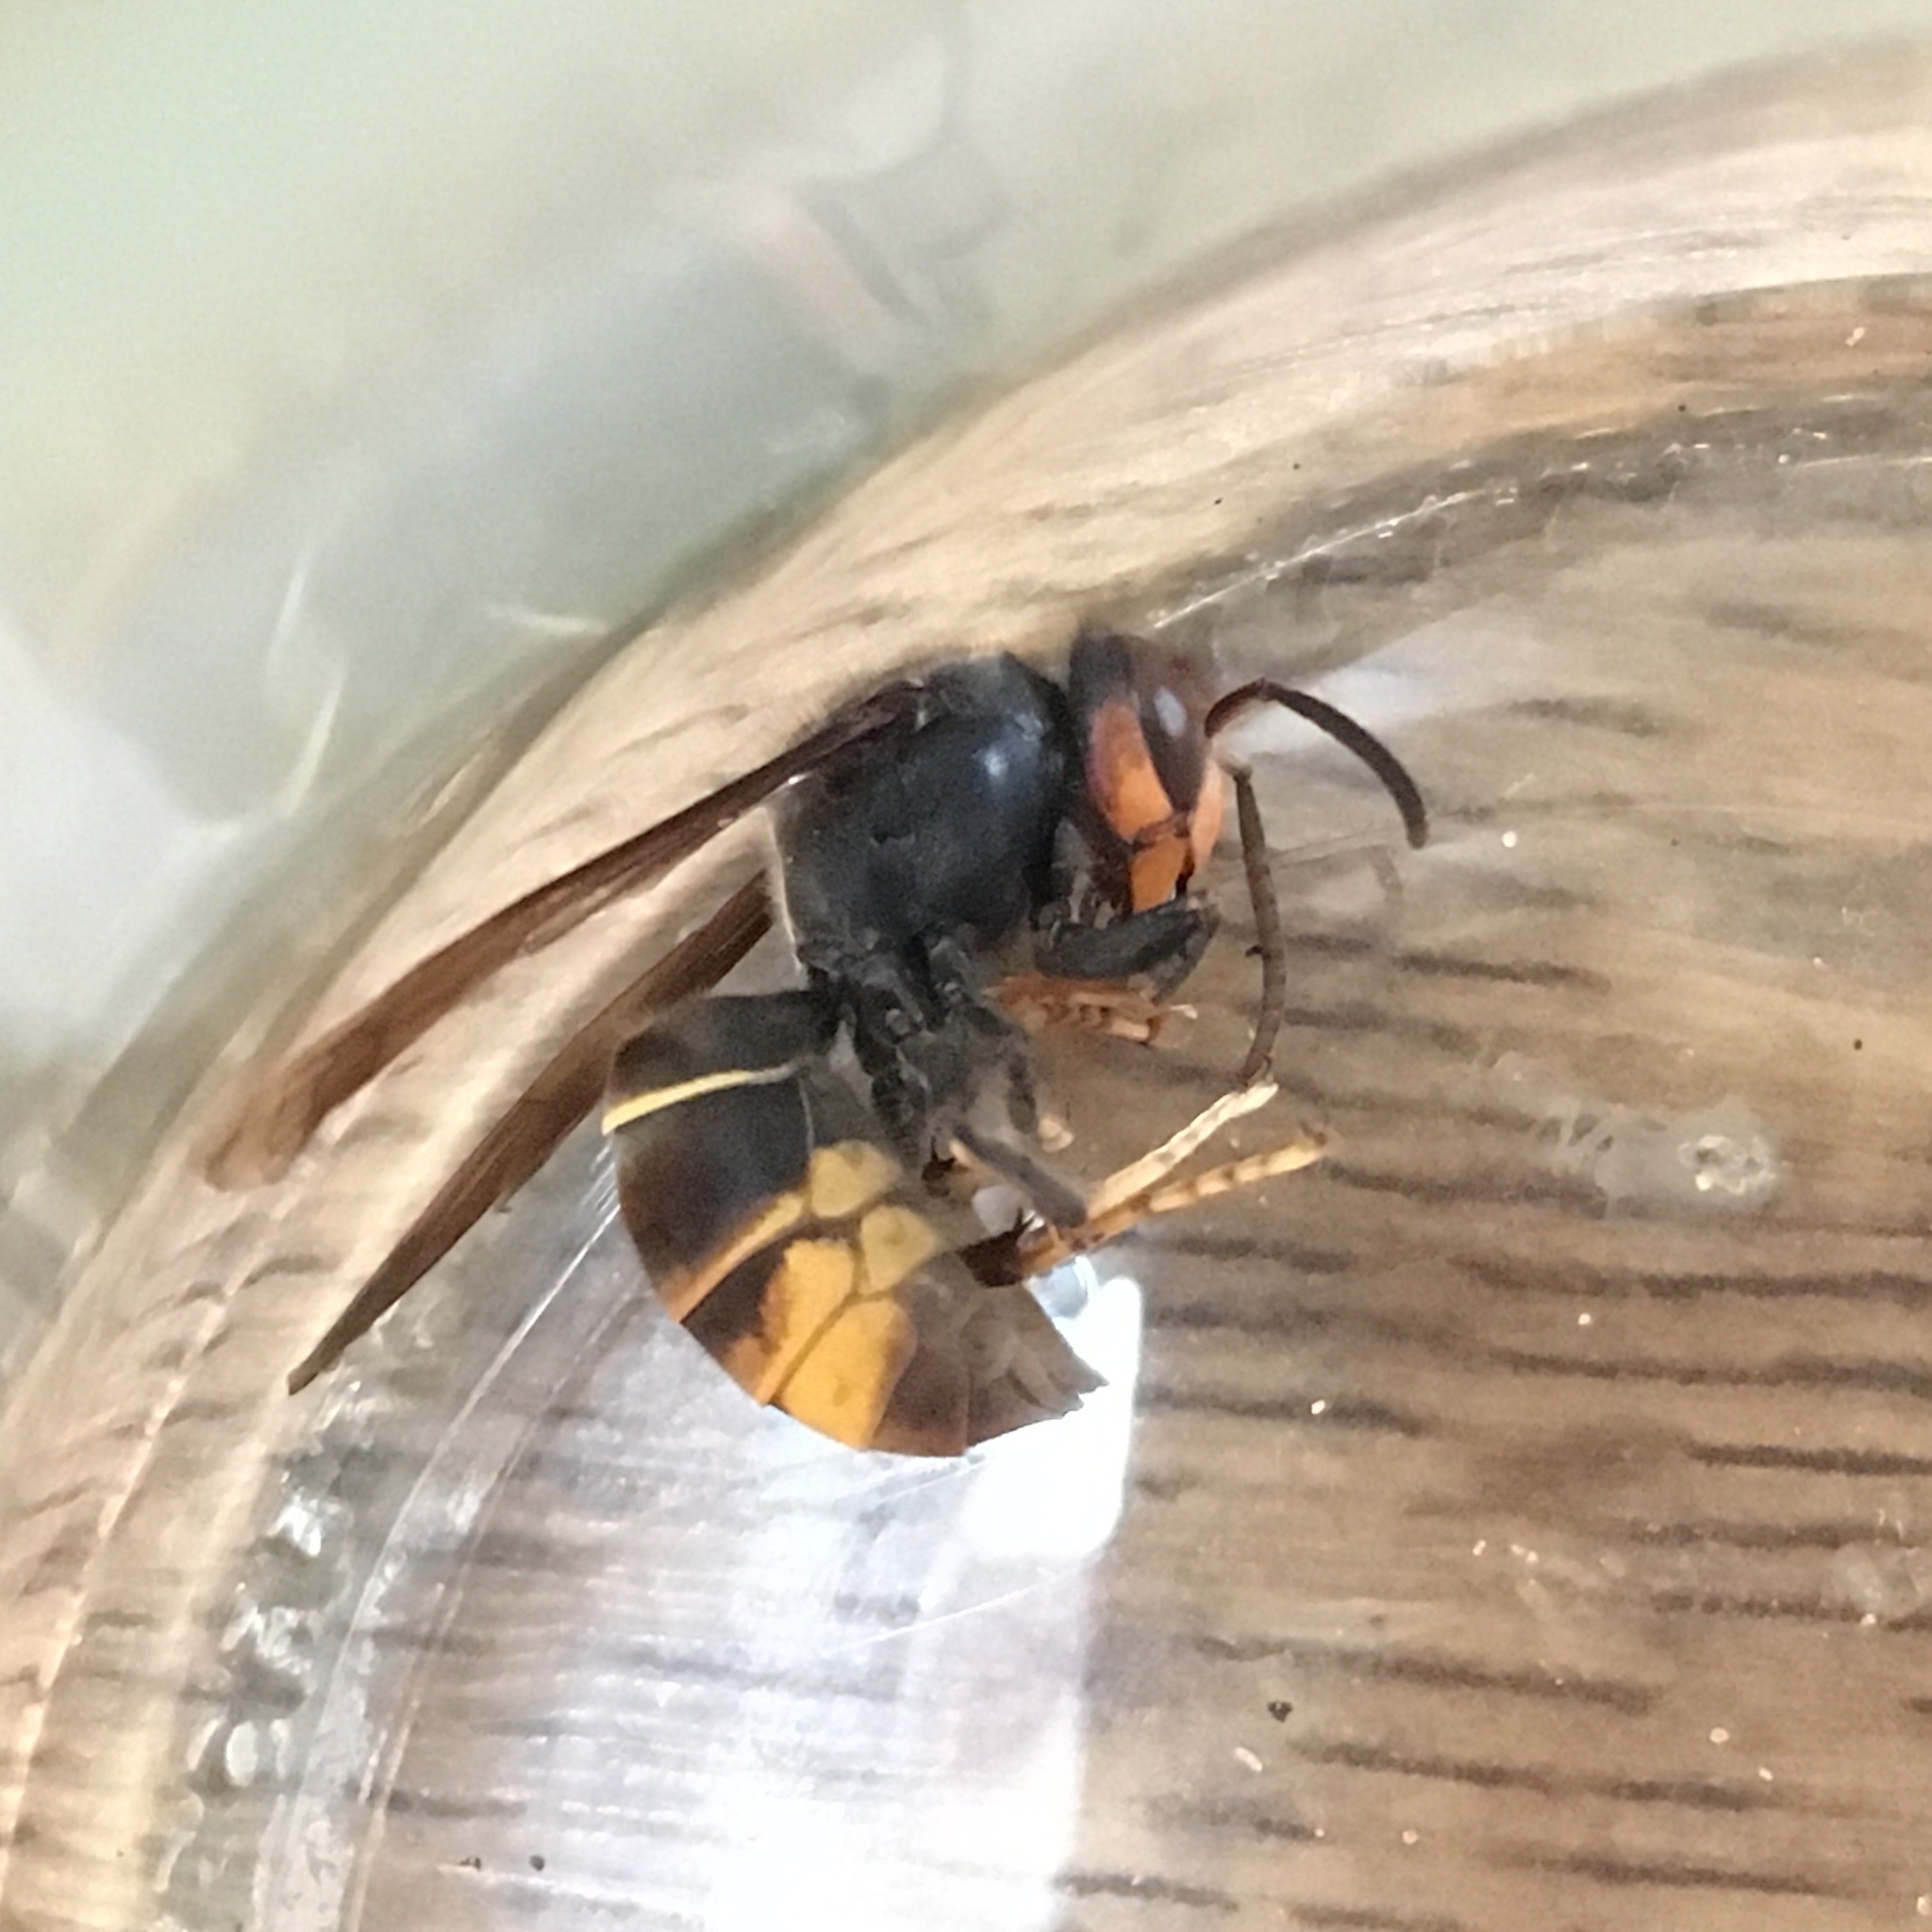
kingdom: Animalia
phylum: Arthropoda
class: Insecta
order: Hymenoptera
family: Vespidae
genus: Vespa
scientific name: Vespa velutina
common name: Asian hornet
